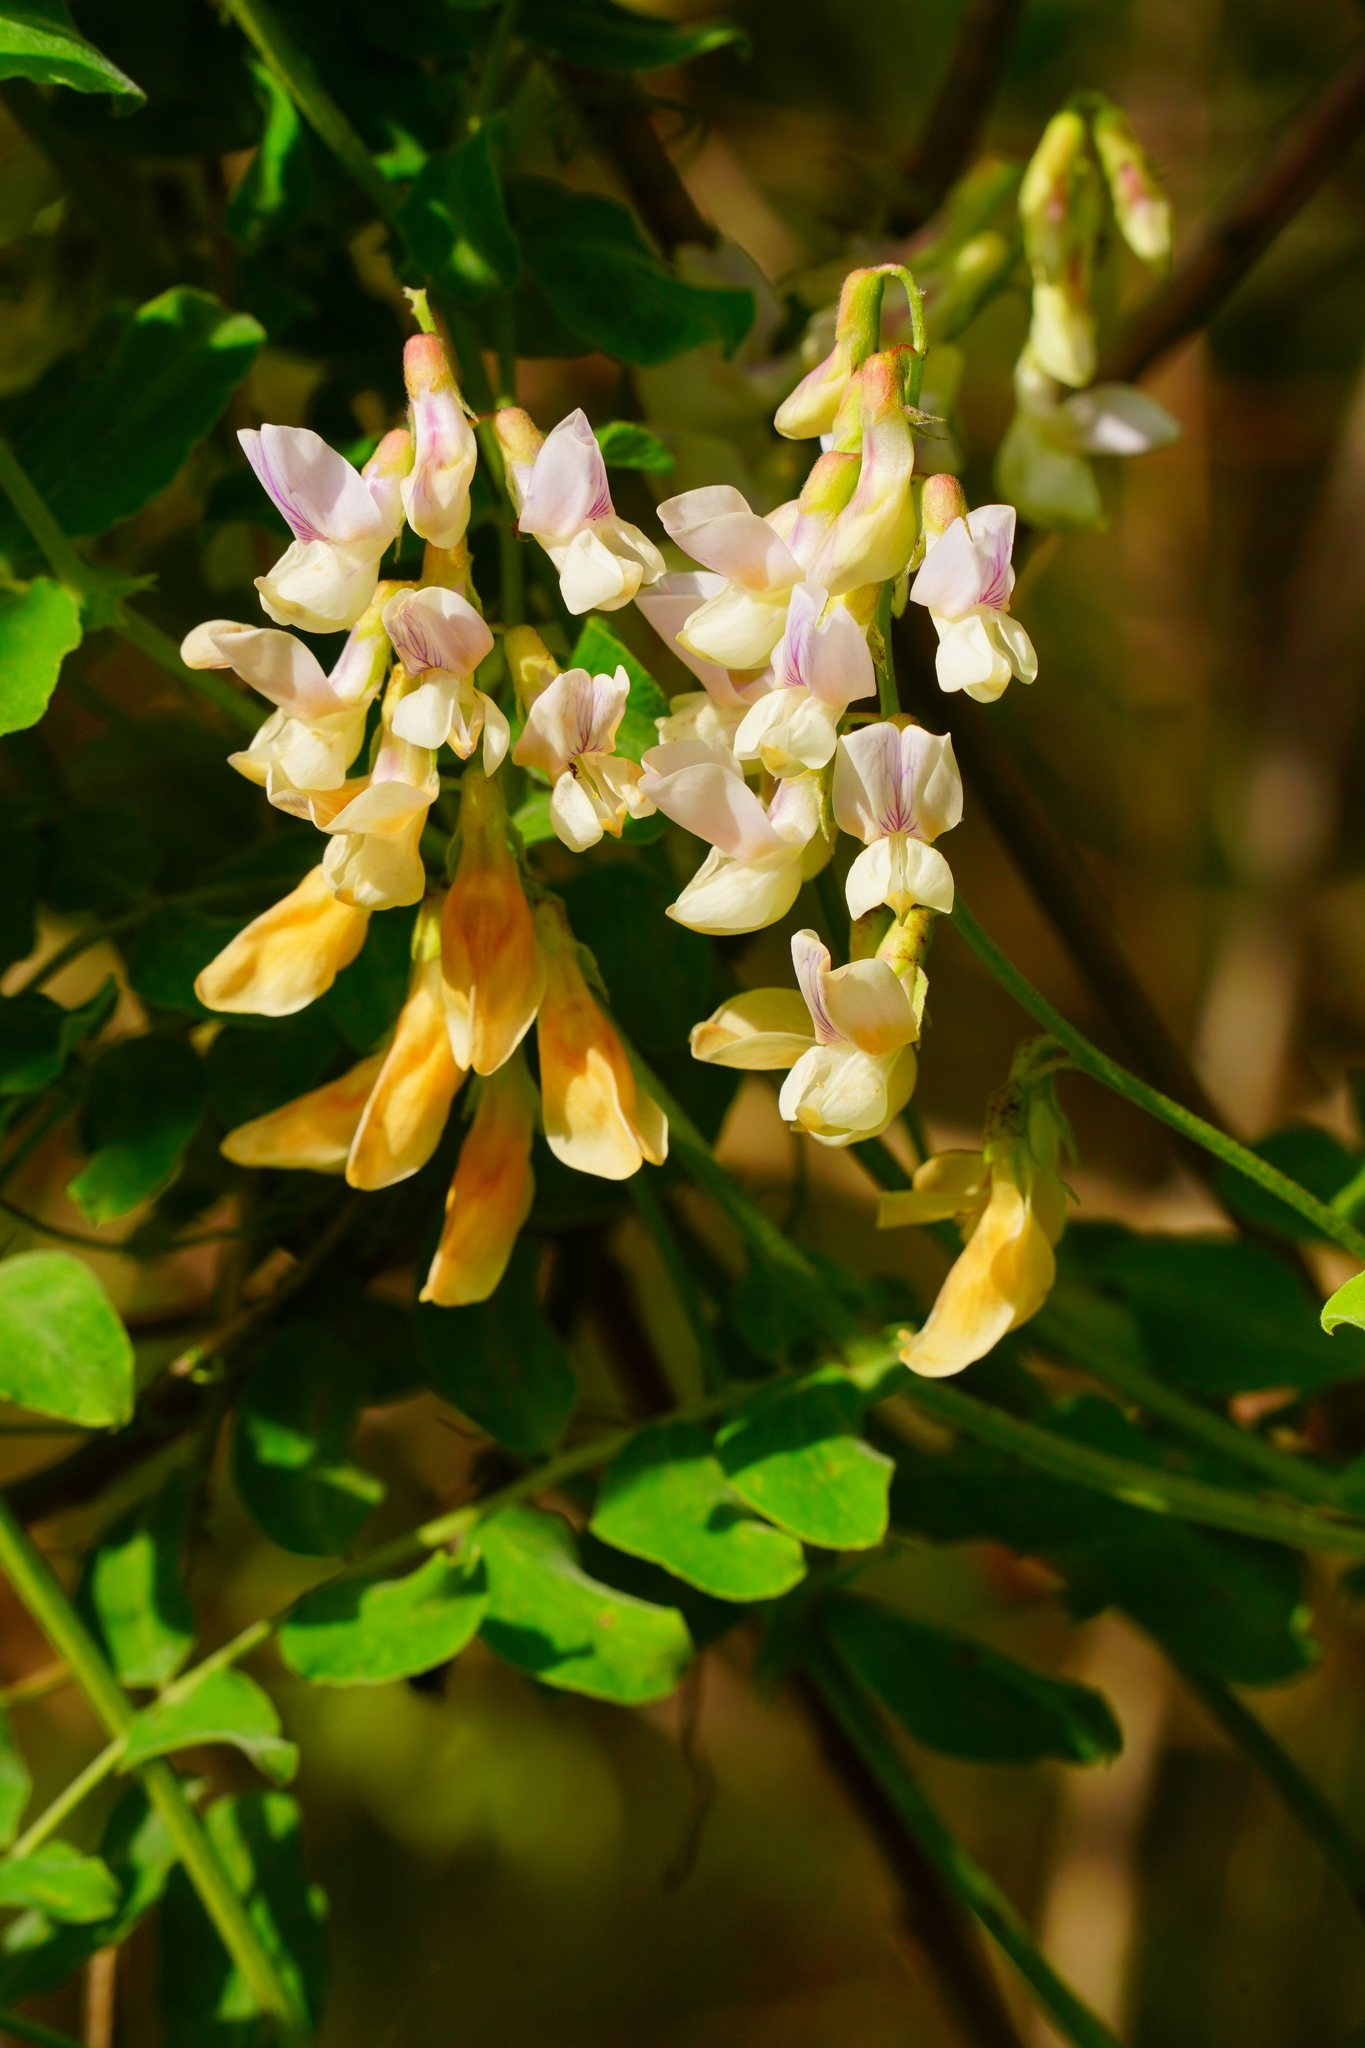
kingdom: Plantae
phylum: Tracheophyta
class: Magnoliopsida
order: Fabales
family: Fabaceae
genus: Lathyrus
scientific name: Lathyrus vestitus
